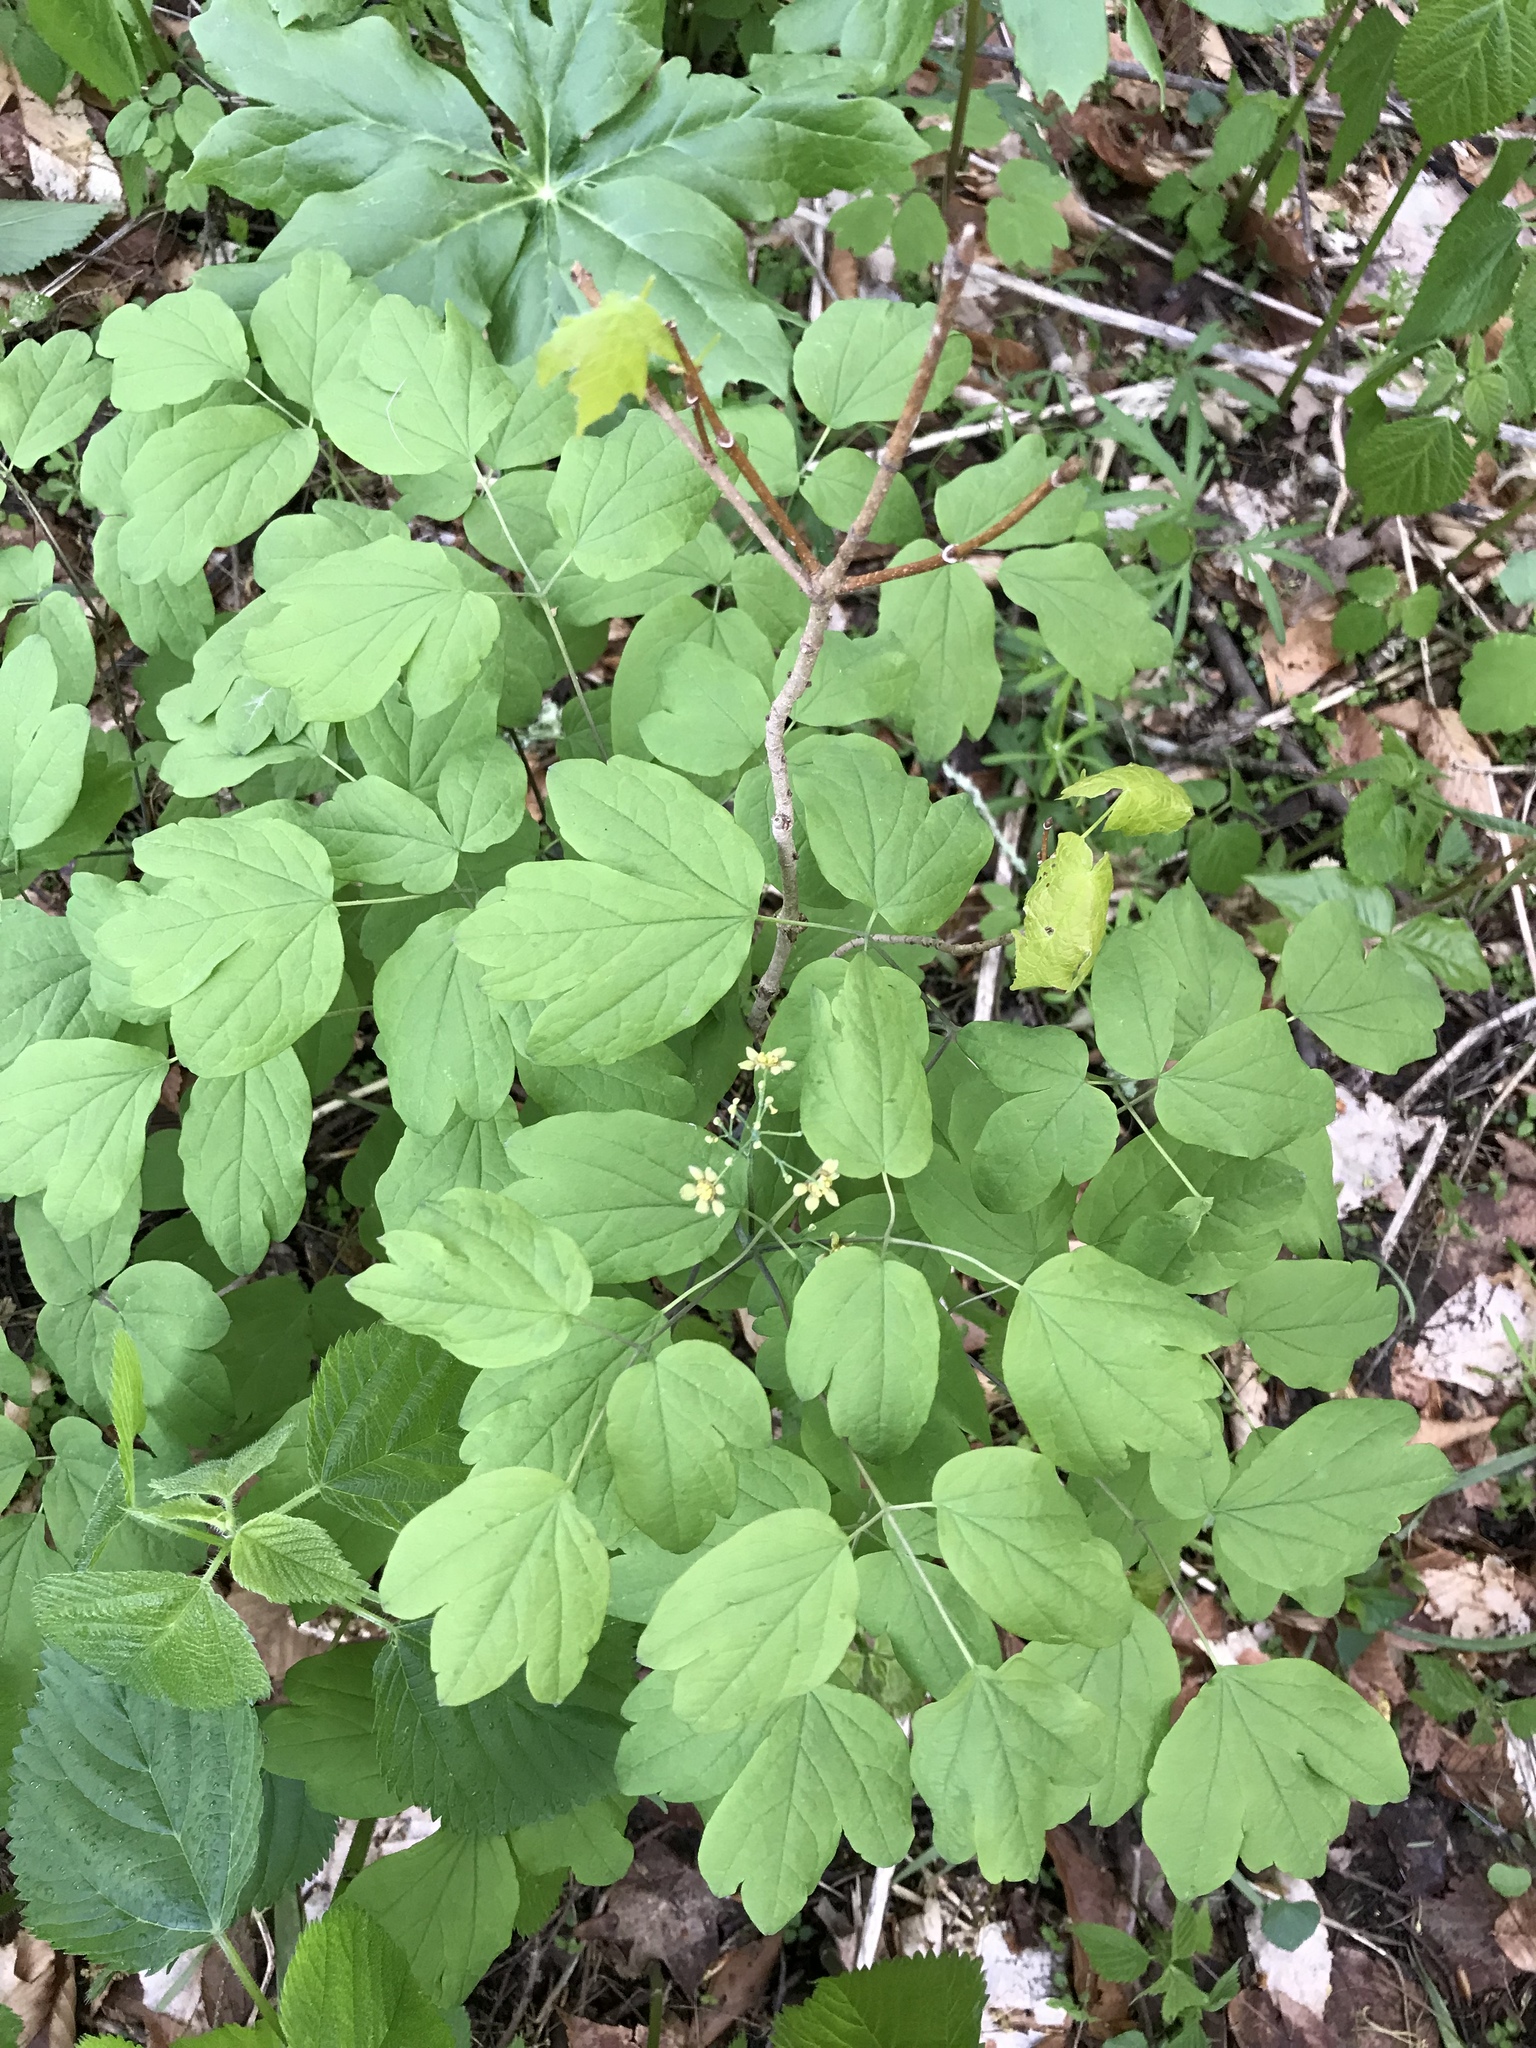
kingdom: Plantae
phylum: Tracheophyta
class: Magnoliopsida
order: Ranunculales
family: Berberidaceae
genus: Caulophyllum
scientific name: Caulophyllum thalictroides
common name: Blue cohosh
